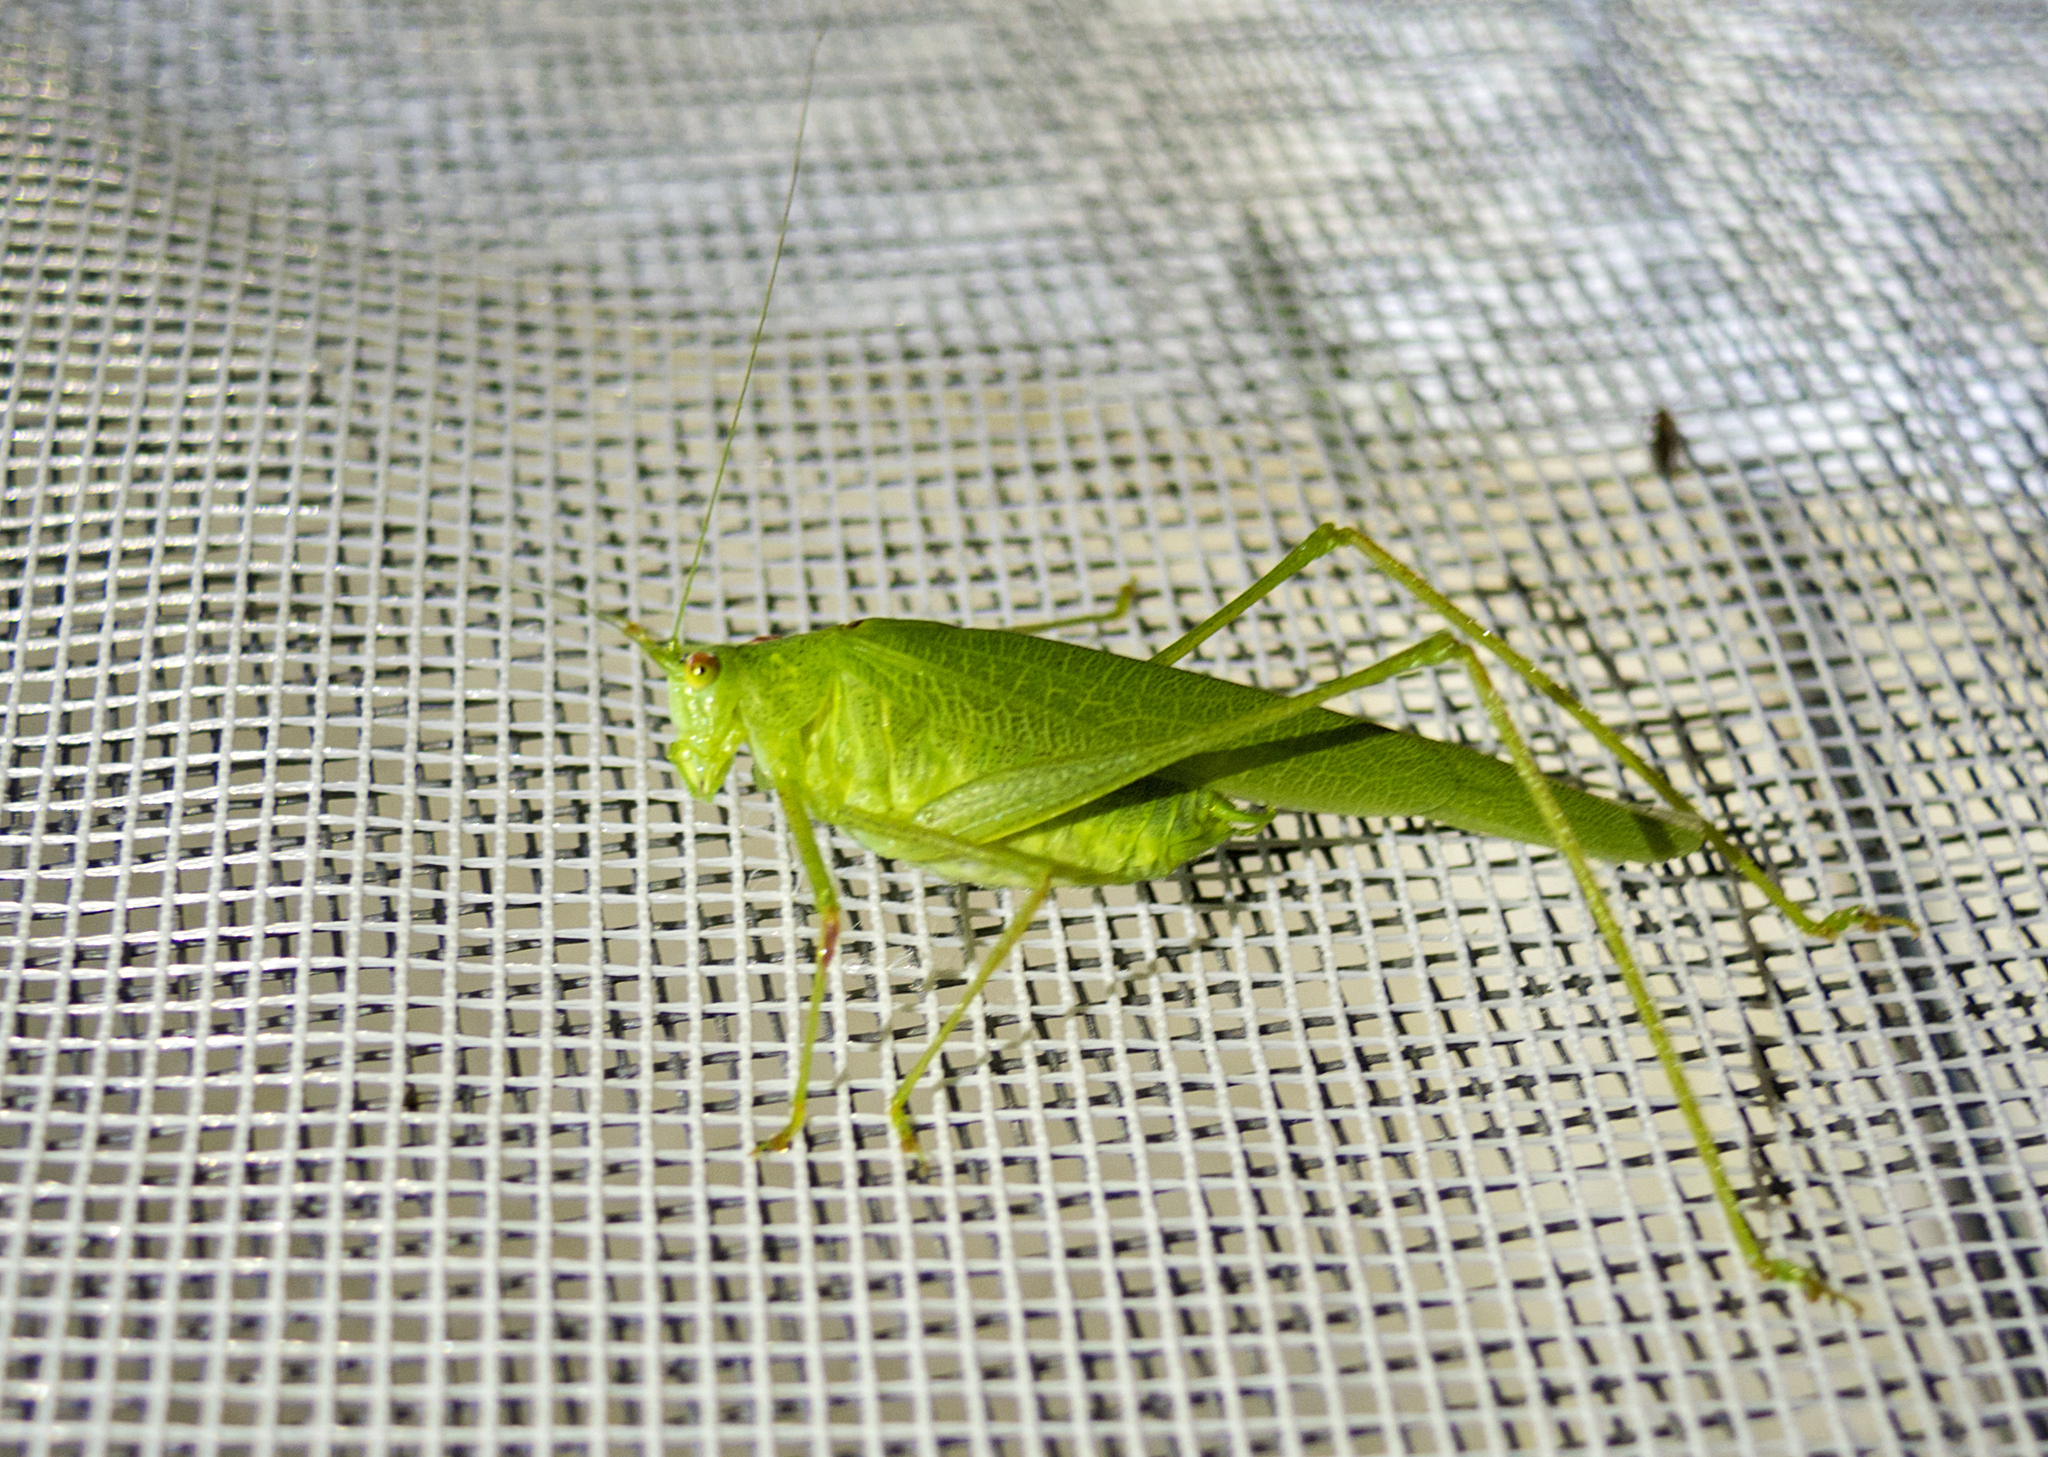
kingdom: Animalia
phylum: Arthropoda
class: Insecta
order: Orthoptera
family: Tettigoniidae
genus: Phaneroptera
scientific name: Phaneroptera nana
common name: Southern sickle bush-cricket
